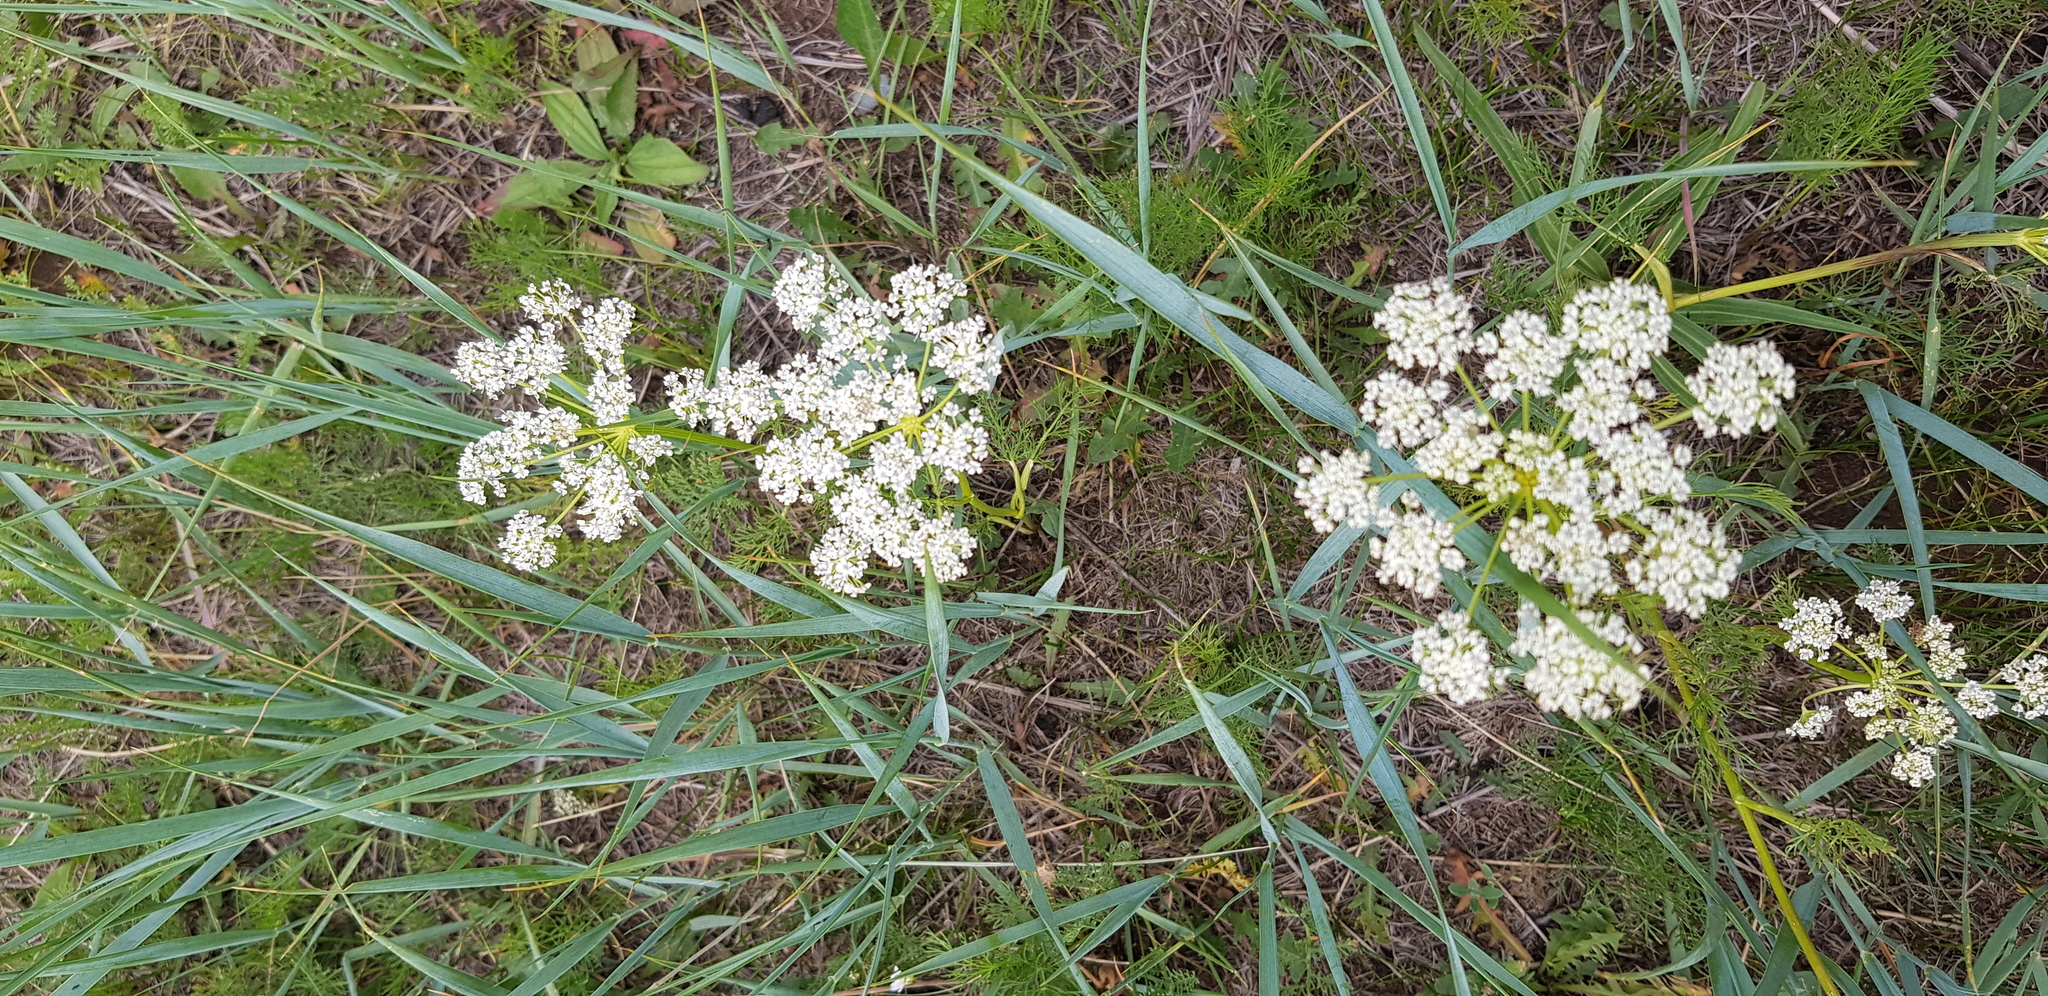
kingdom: Plantae
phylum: Tracheophyta
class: Magnoliopsida
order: Apiales
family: Apiaceae
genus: Carum
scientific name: Carum carvi
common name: Caraway
